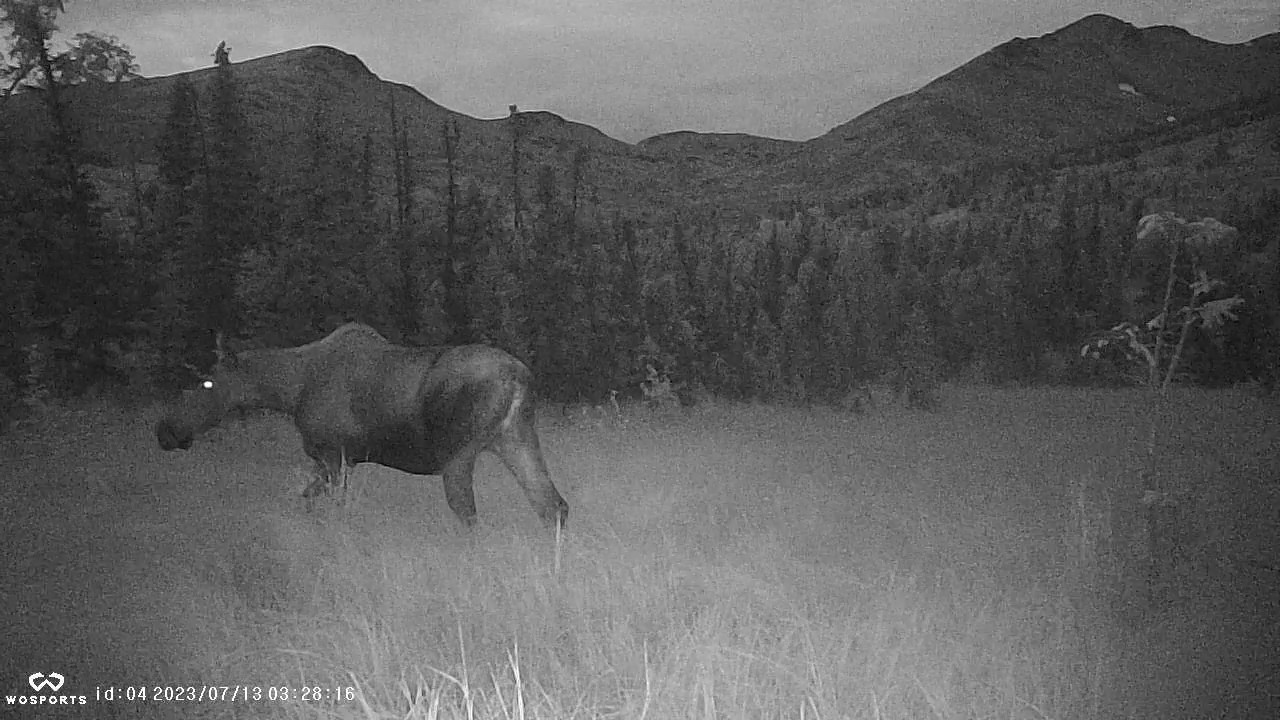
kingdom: Animalia
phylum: Chordata
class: Mammalia
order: Artiodactyla
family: Cervidae
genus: Alces
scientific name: Alces alces
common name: Moose
